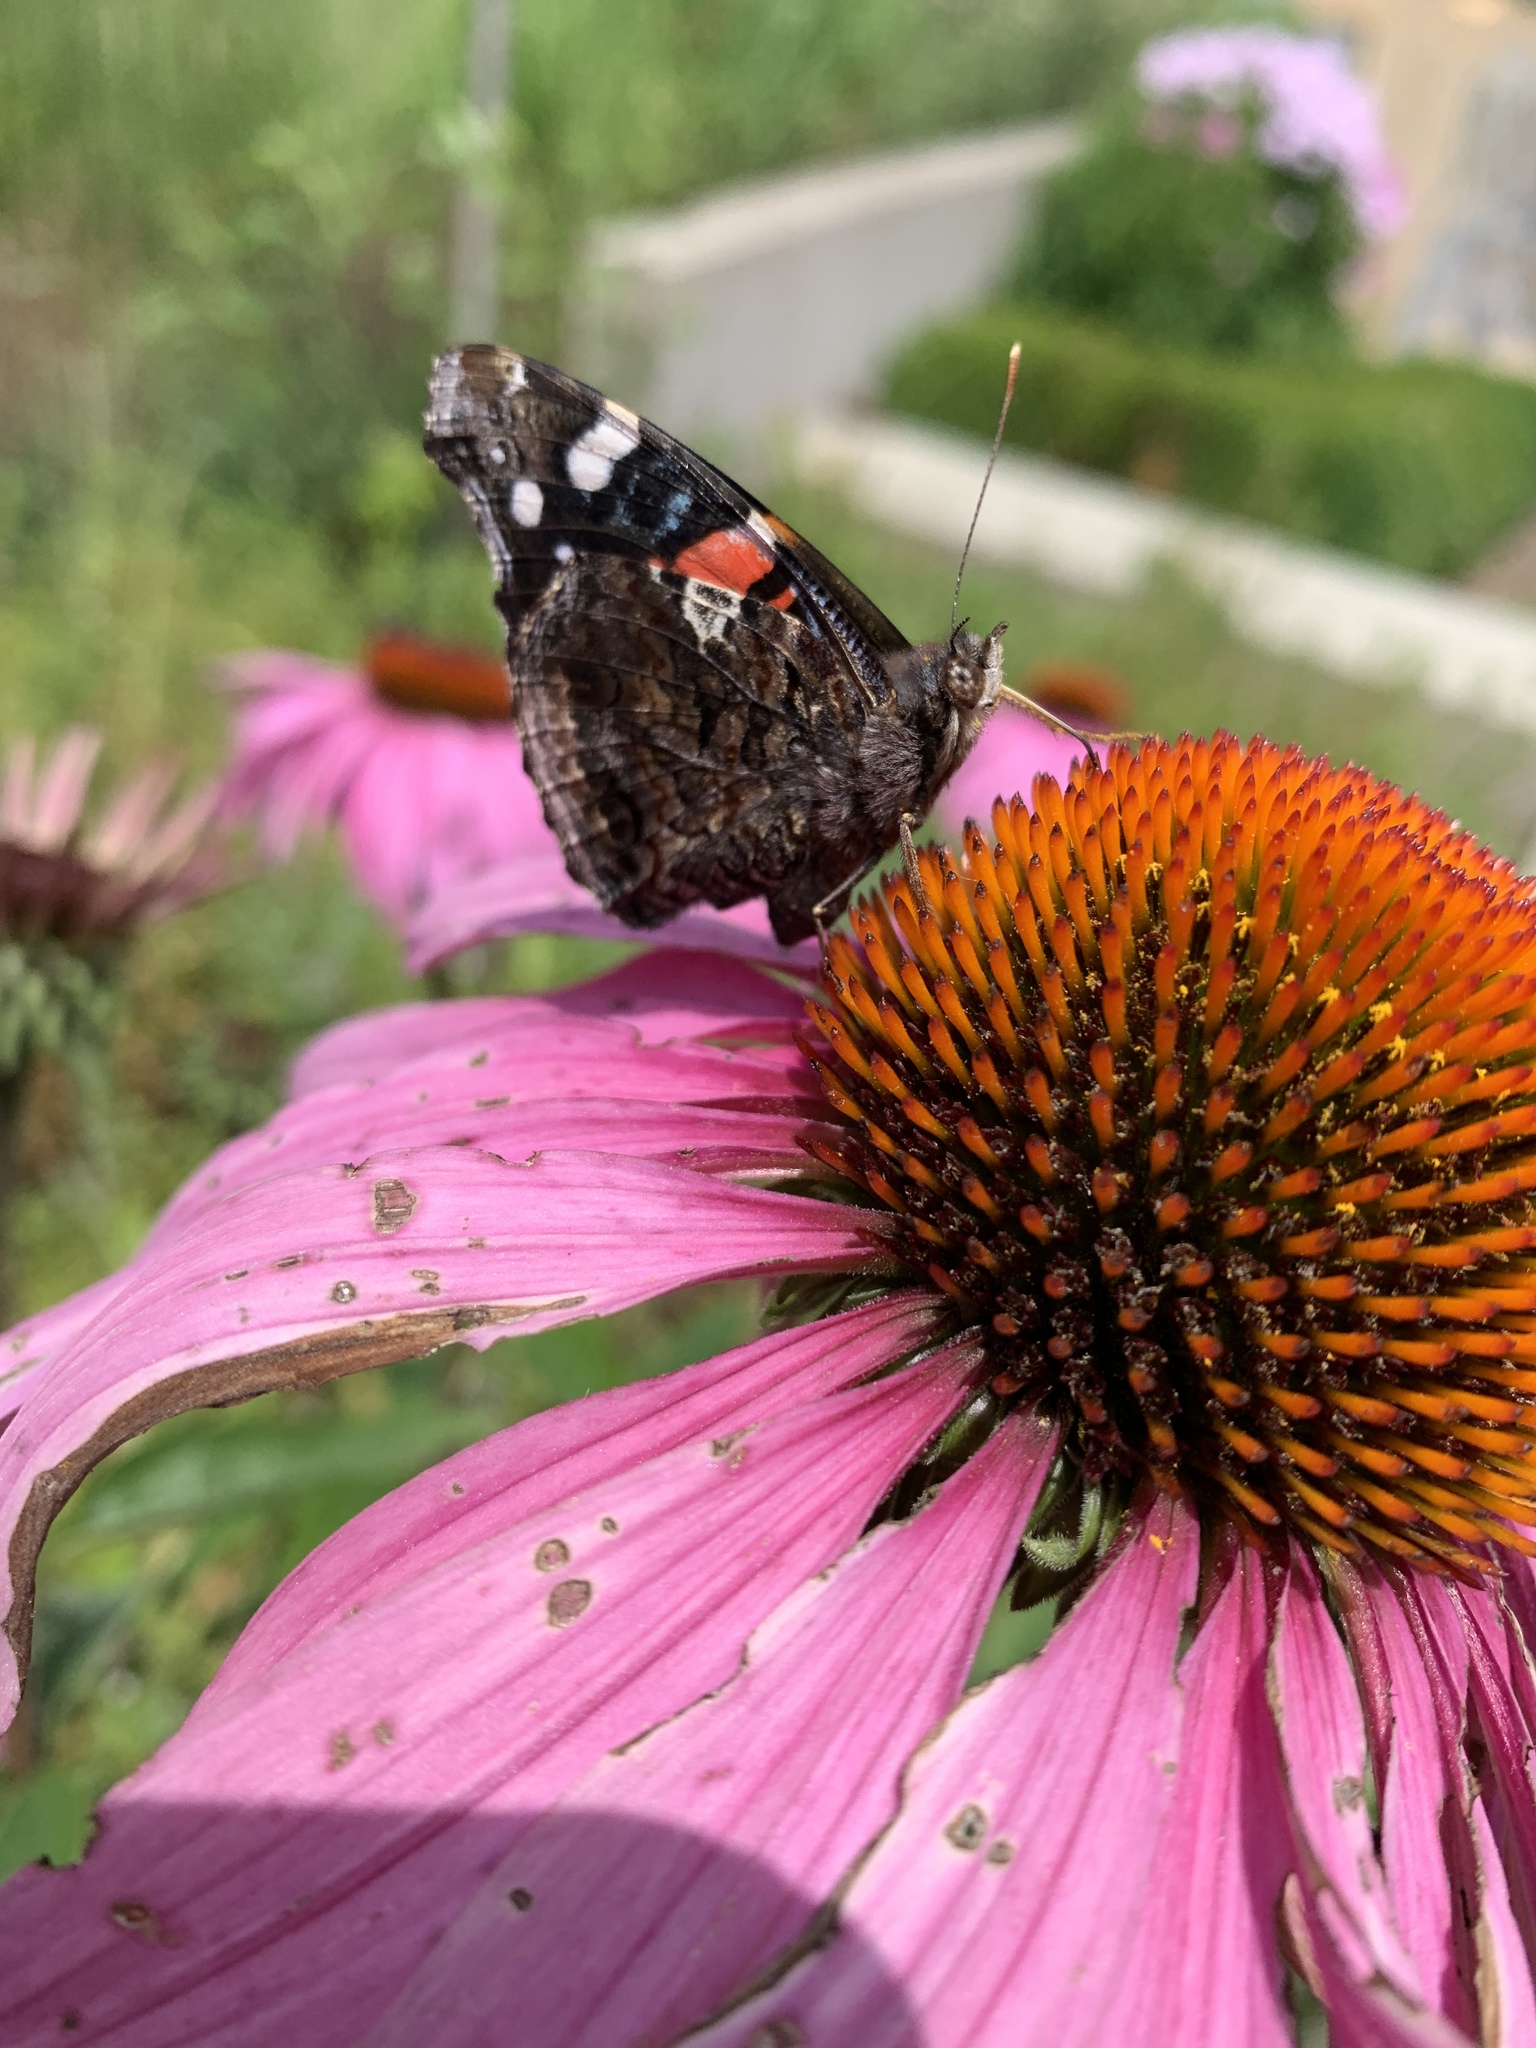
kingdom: Animalia
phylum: Arthropoda
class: Insecta
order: Lepidoptera
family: Nymphalidae
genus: Vanessa
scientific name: Vanessa atalanta
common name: Red admiral
